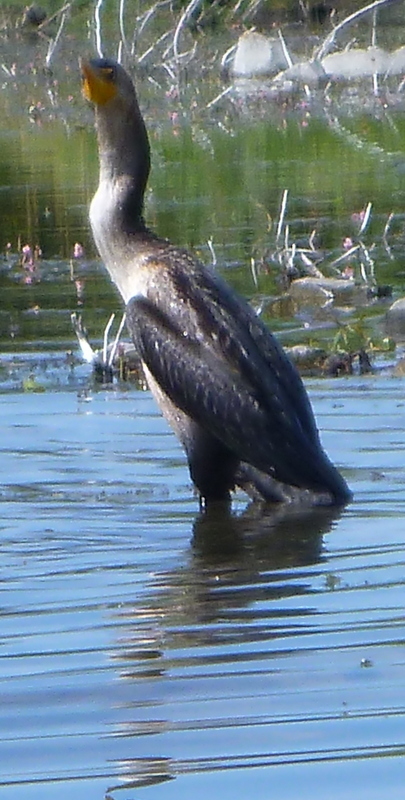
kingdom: Animalia
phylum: Chordata
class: Aves
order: Suliformes
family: Phalacrocoracidae
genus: Phalacrocorax
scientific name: Phalacrocorax auritus
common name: Double-crested cormorant
